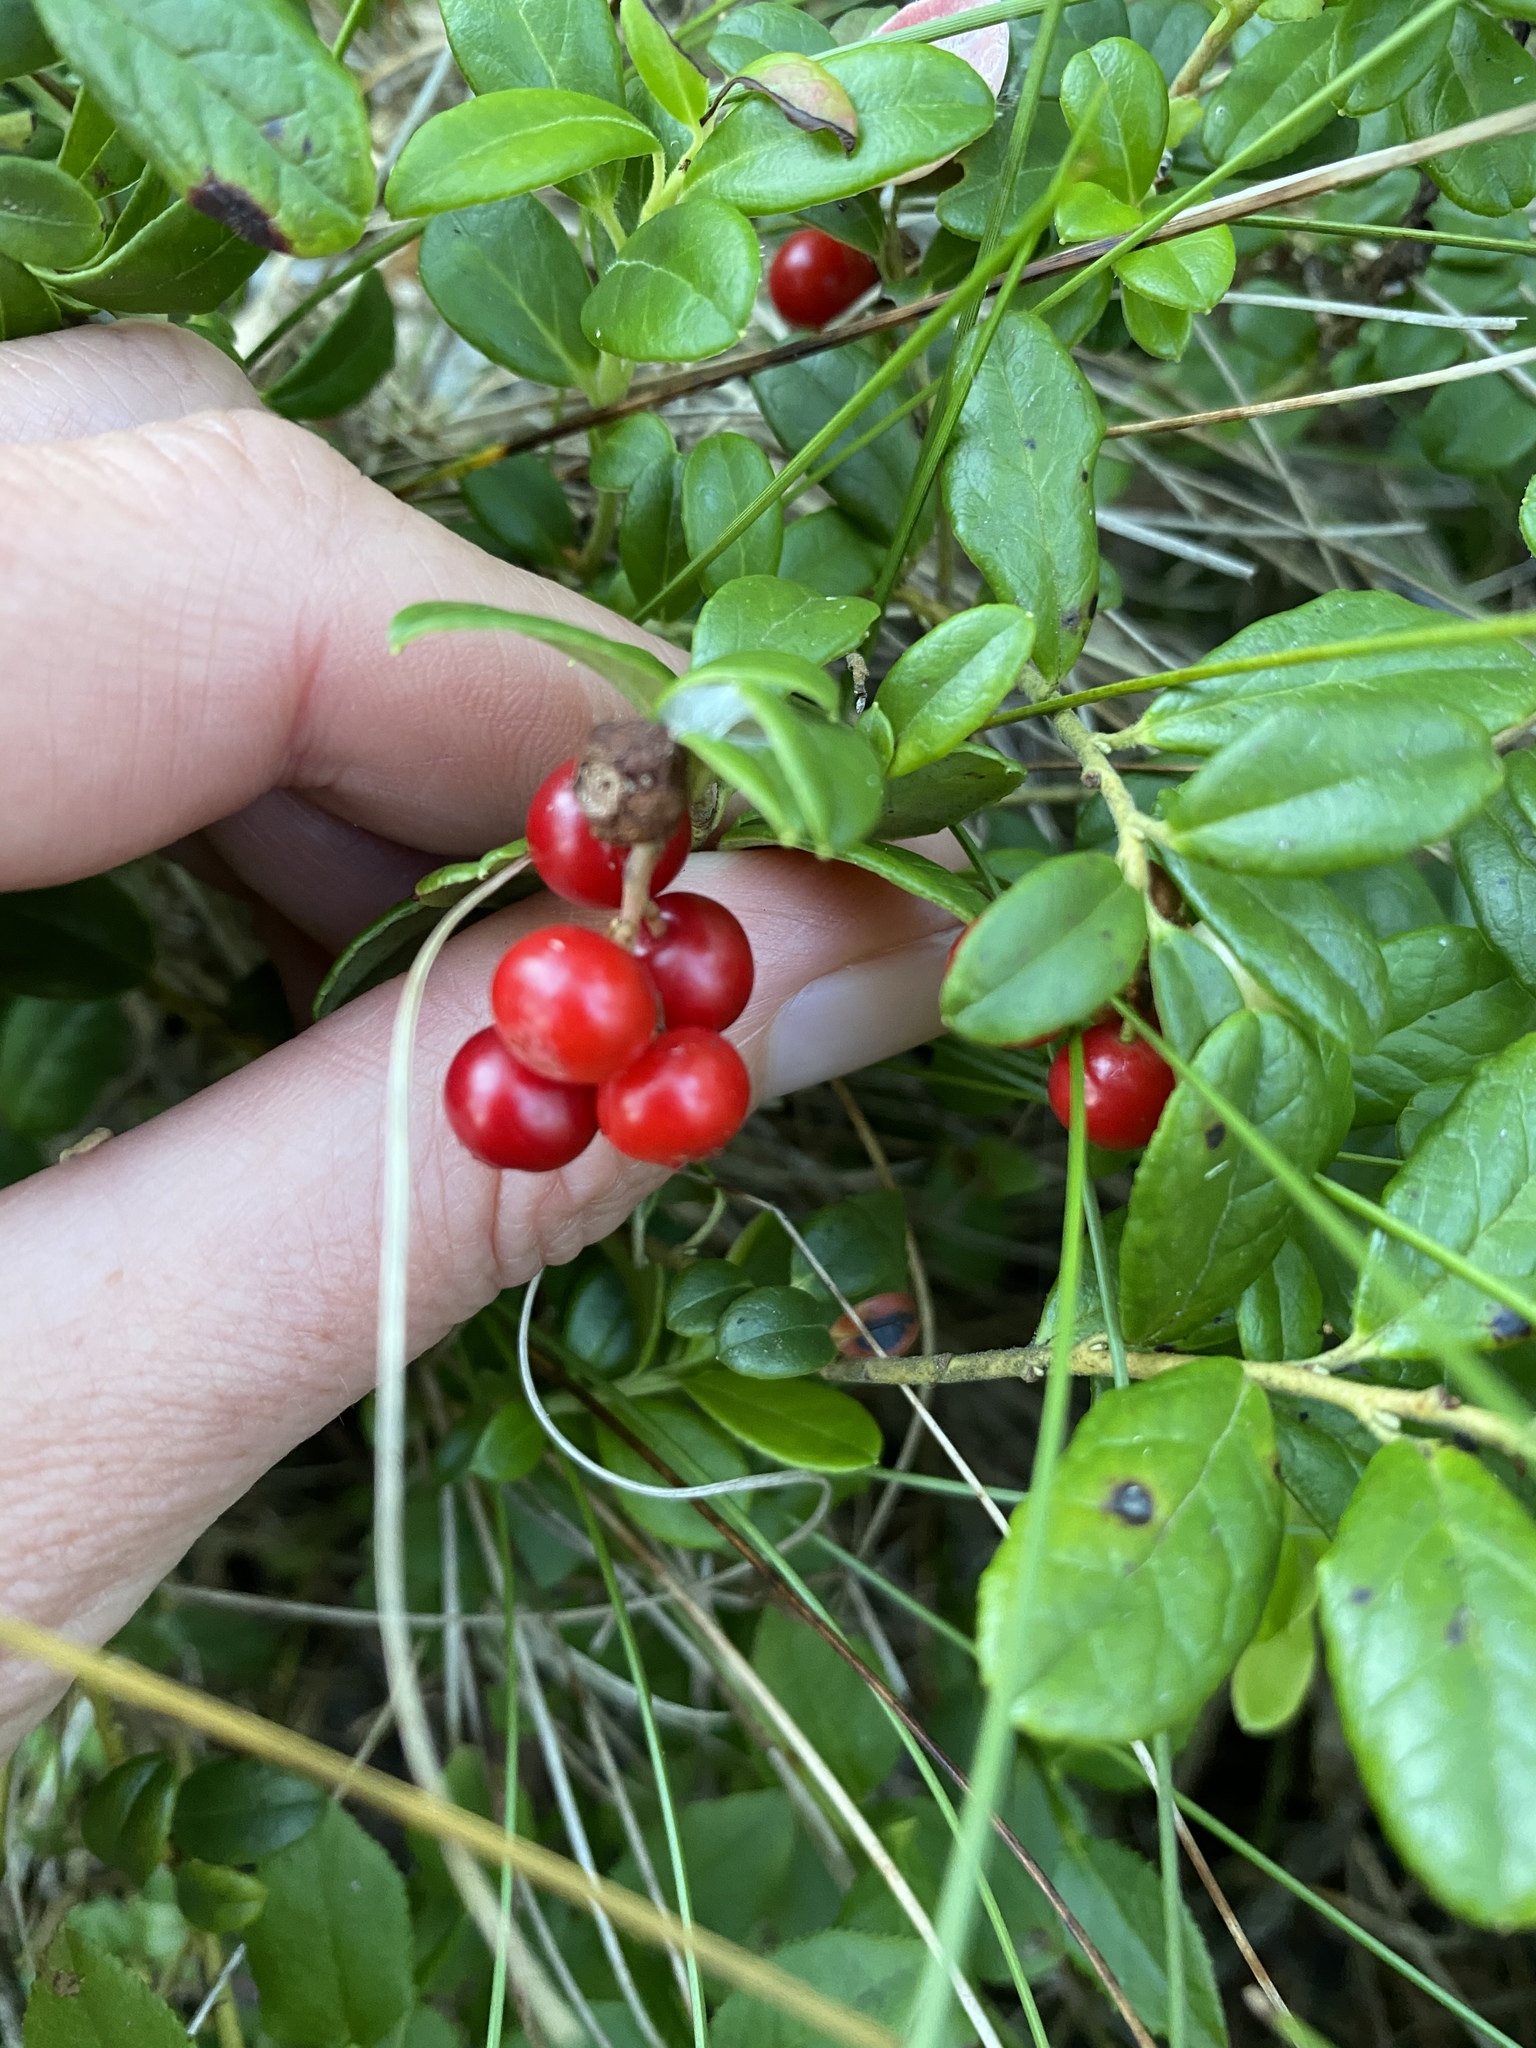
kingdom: Plantae
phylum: Tracheophyta
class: Magnoliopsida
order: Ericales
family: Ericaceae
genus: Vaccinium
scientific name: Vaccinium vitis-idaea
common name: Cowberry
